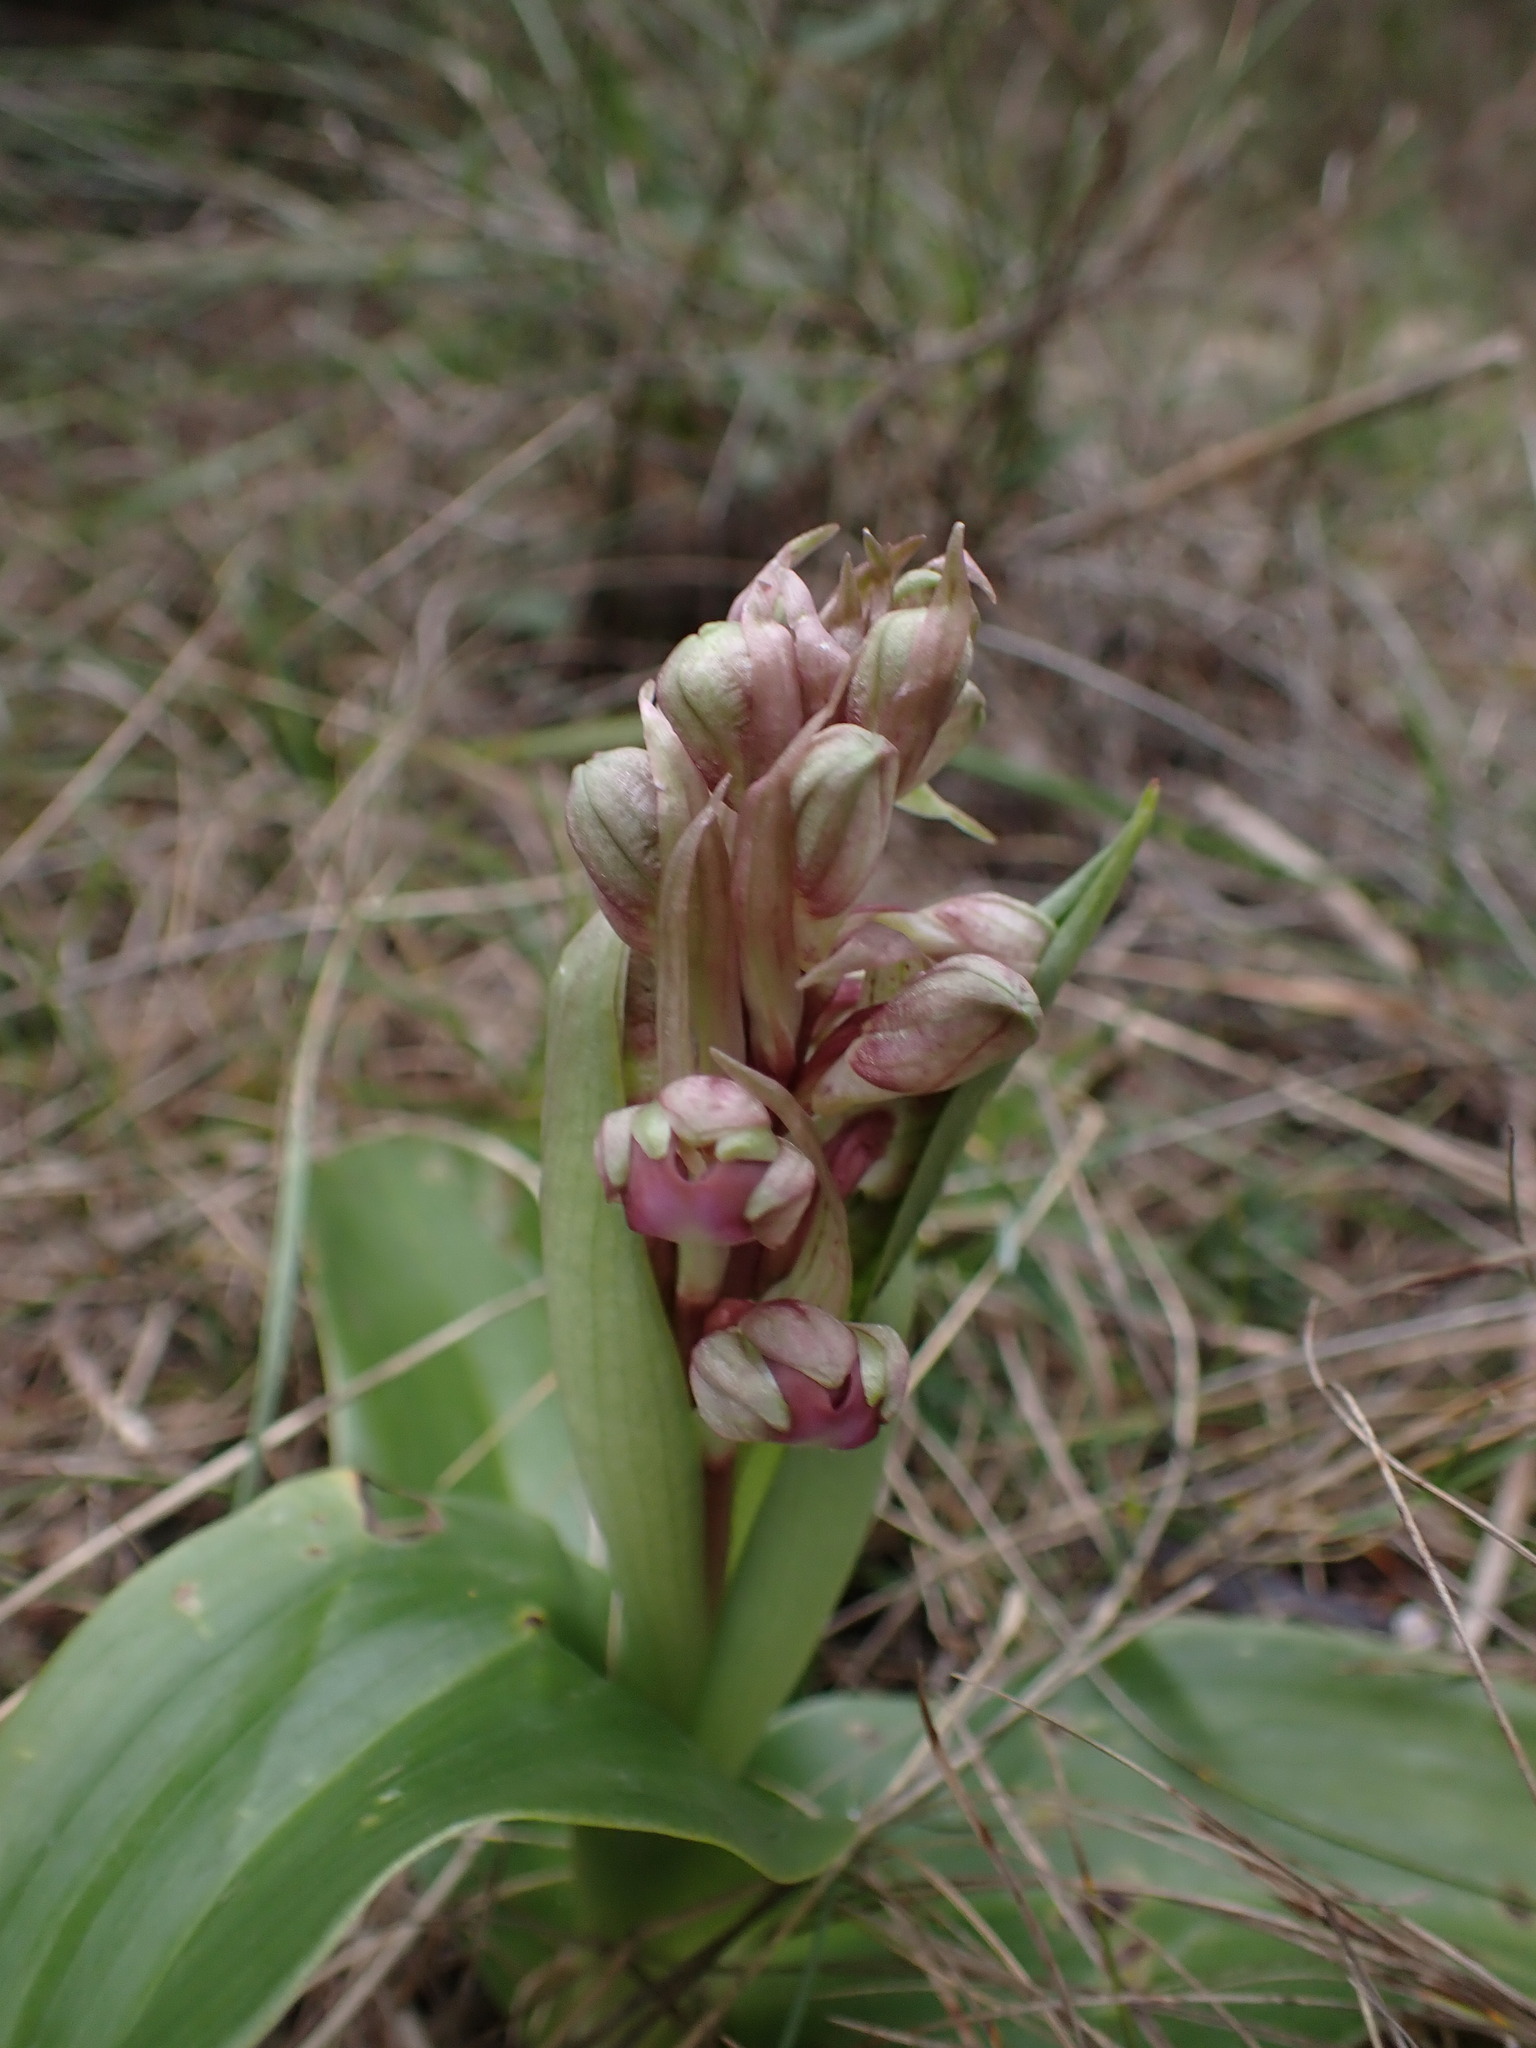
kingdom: Plantae
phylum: Tracheophyta
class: Liliopsida
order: Asparagales
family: Orchidaceae
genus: Himantoglossum
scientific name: Himantoglossum robertianum
